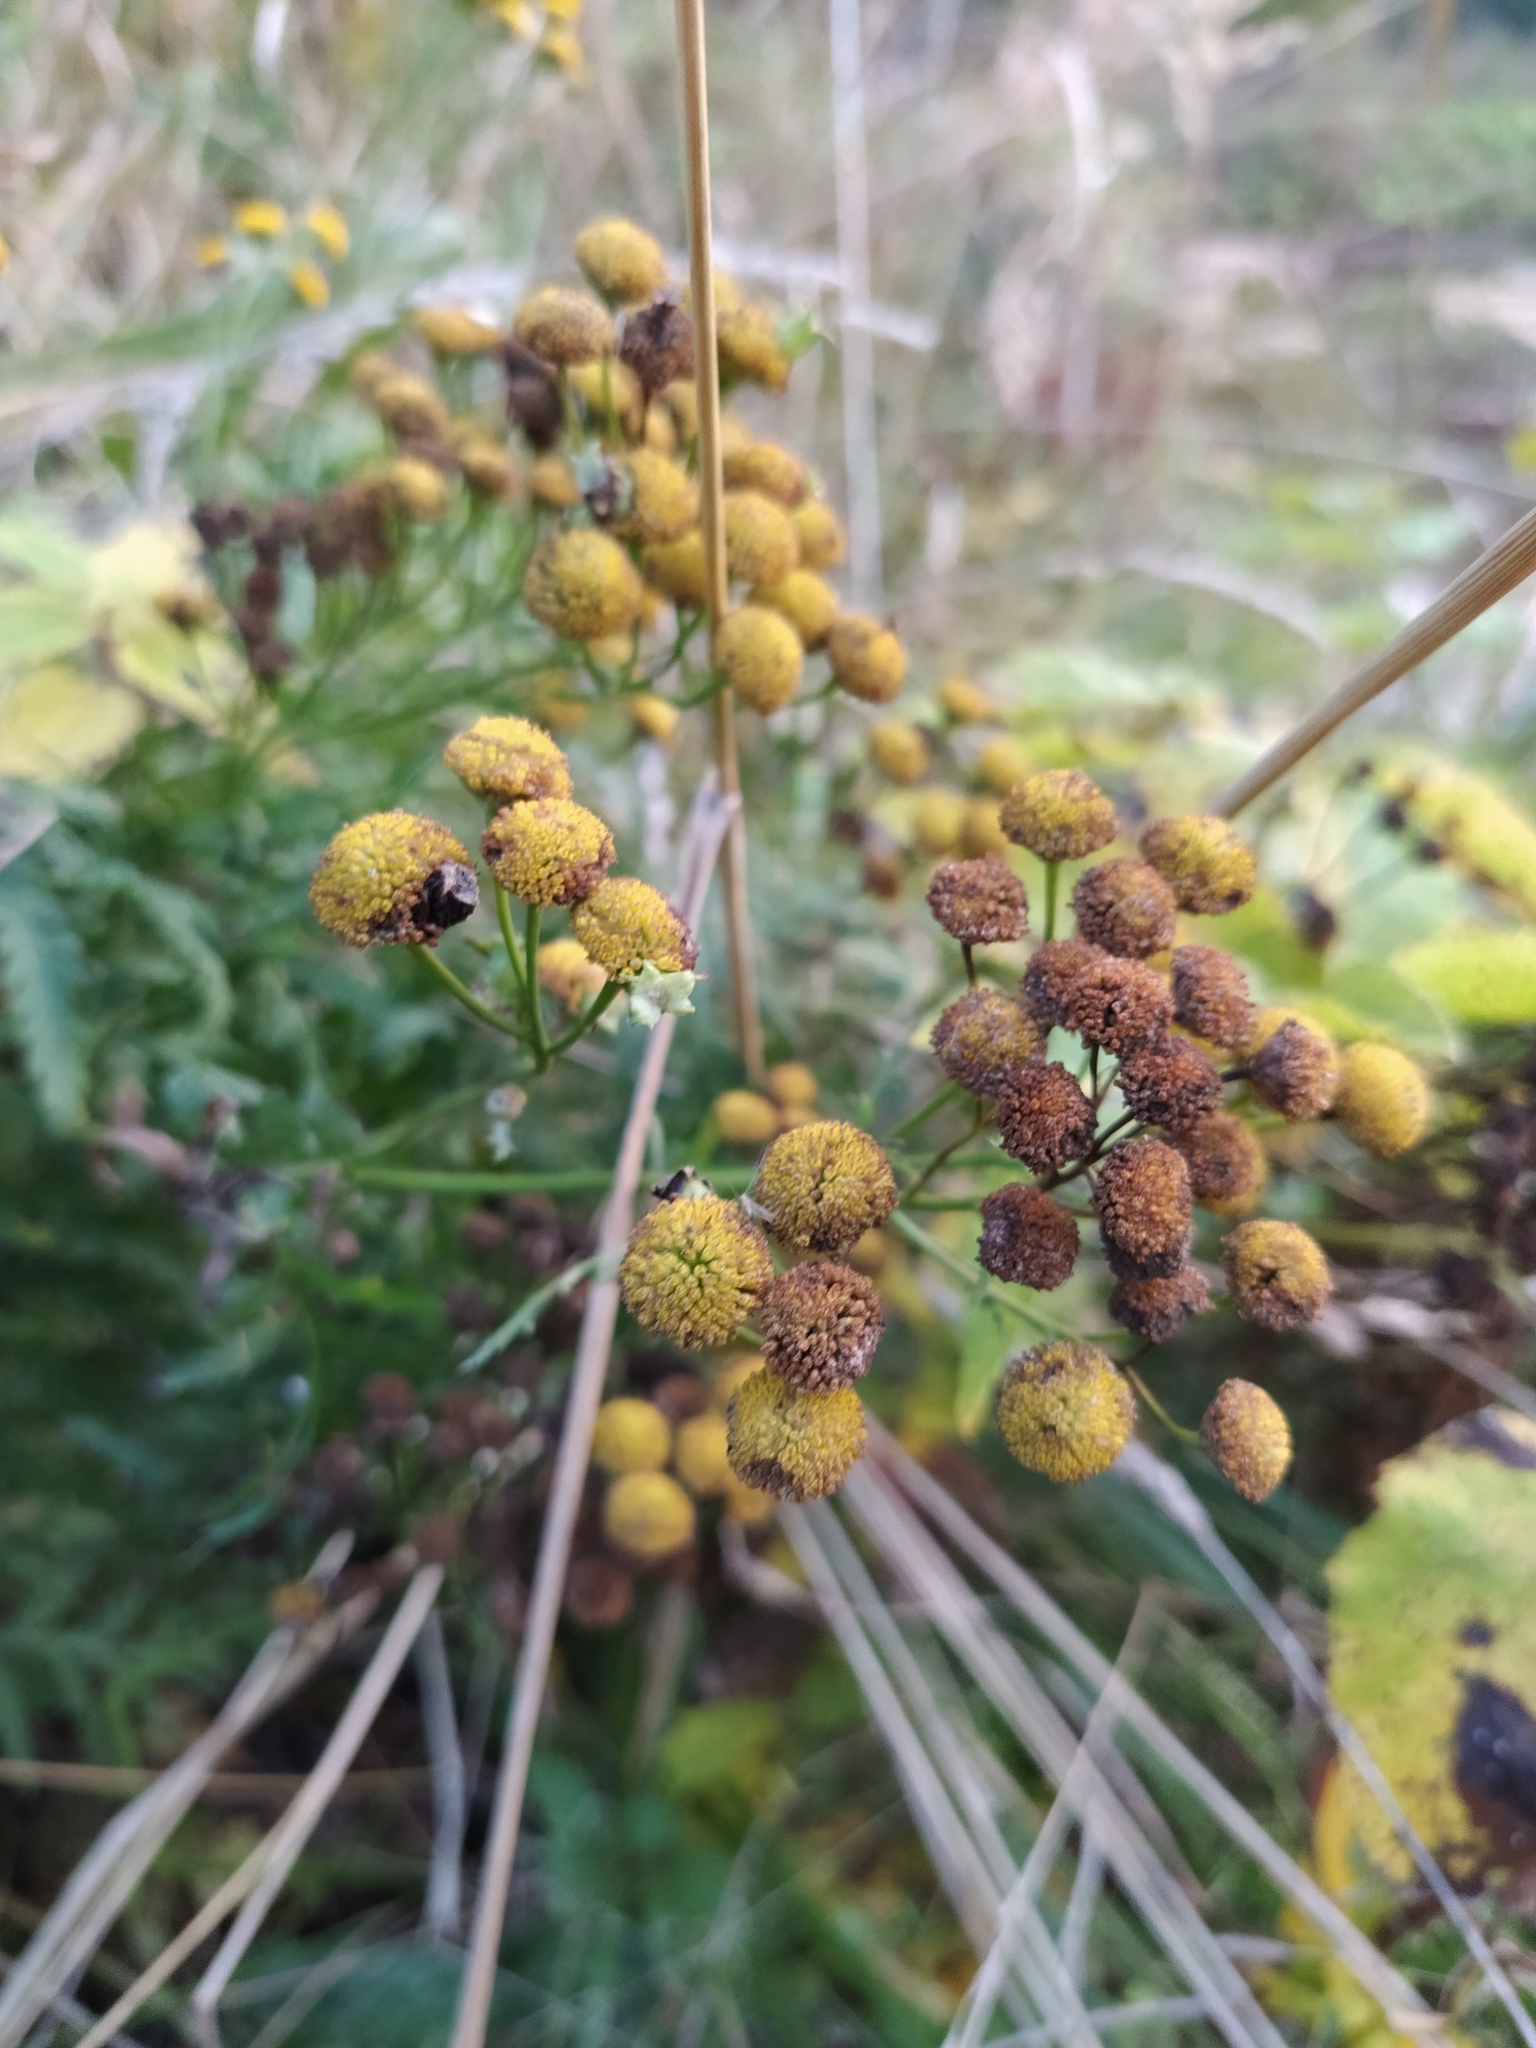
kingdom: Plantae
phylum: Tracheophyta
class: Magnoliopsida
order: Asterales
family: Asteraceae
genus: Tanacetum
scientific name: Tanacetum vulgare
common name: Common tansy
